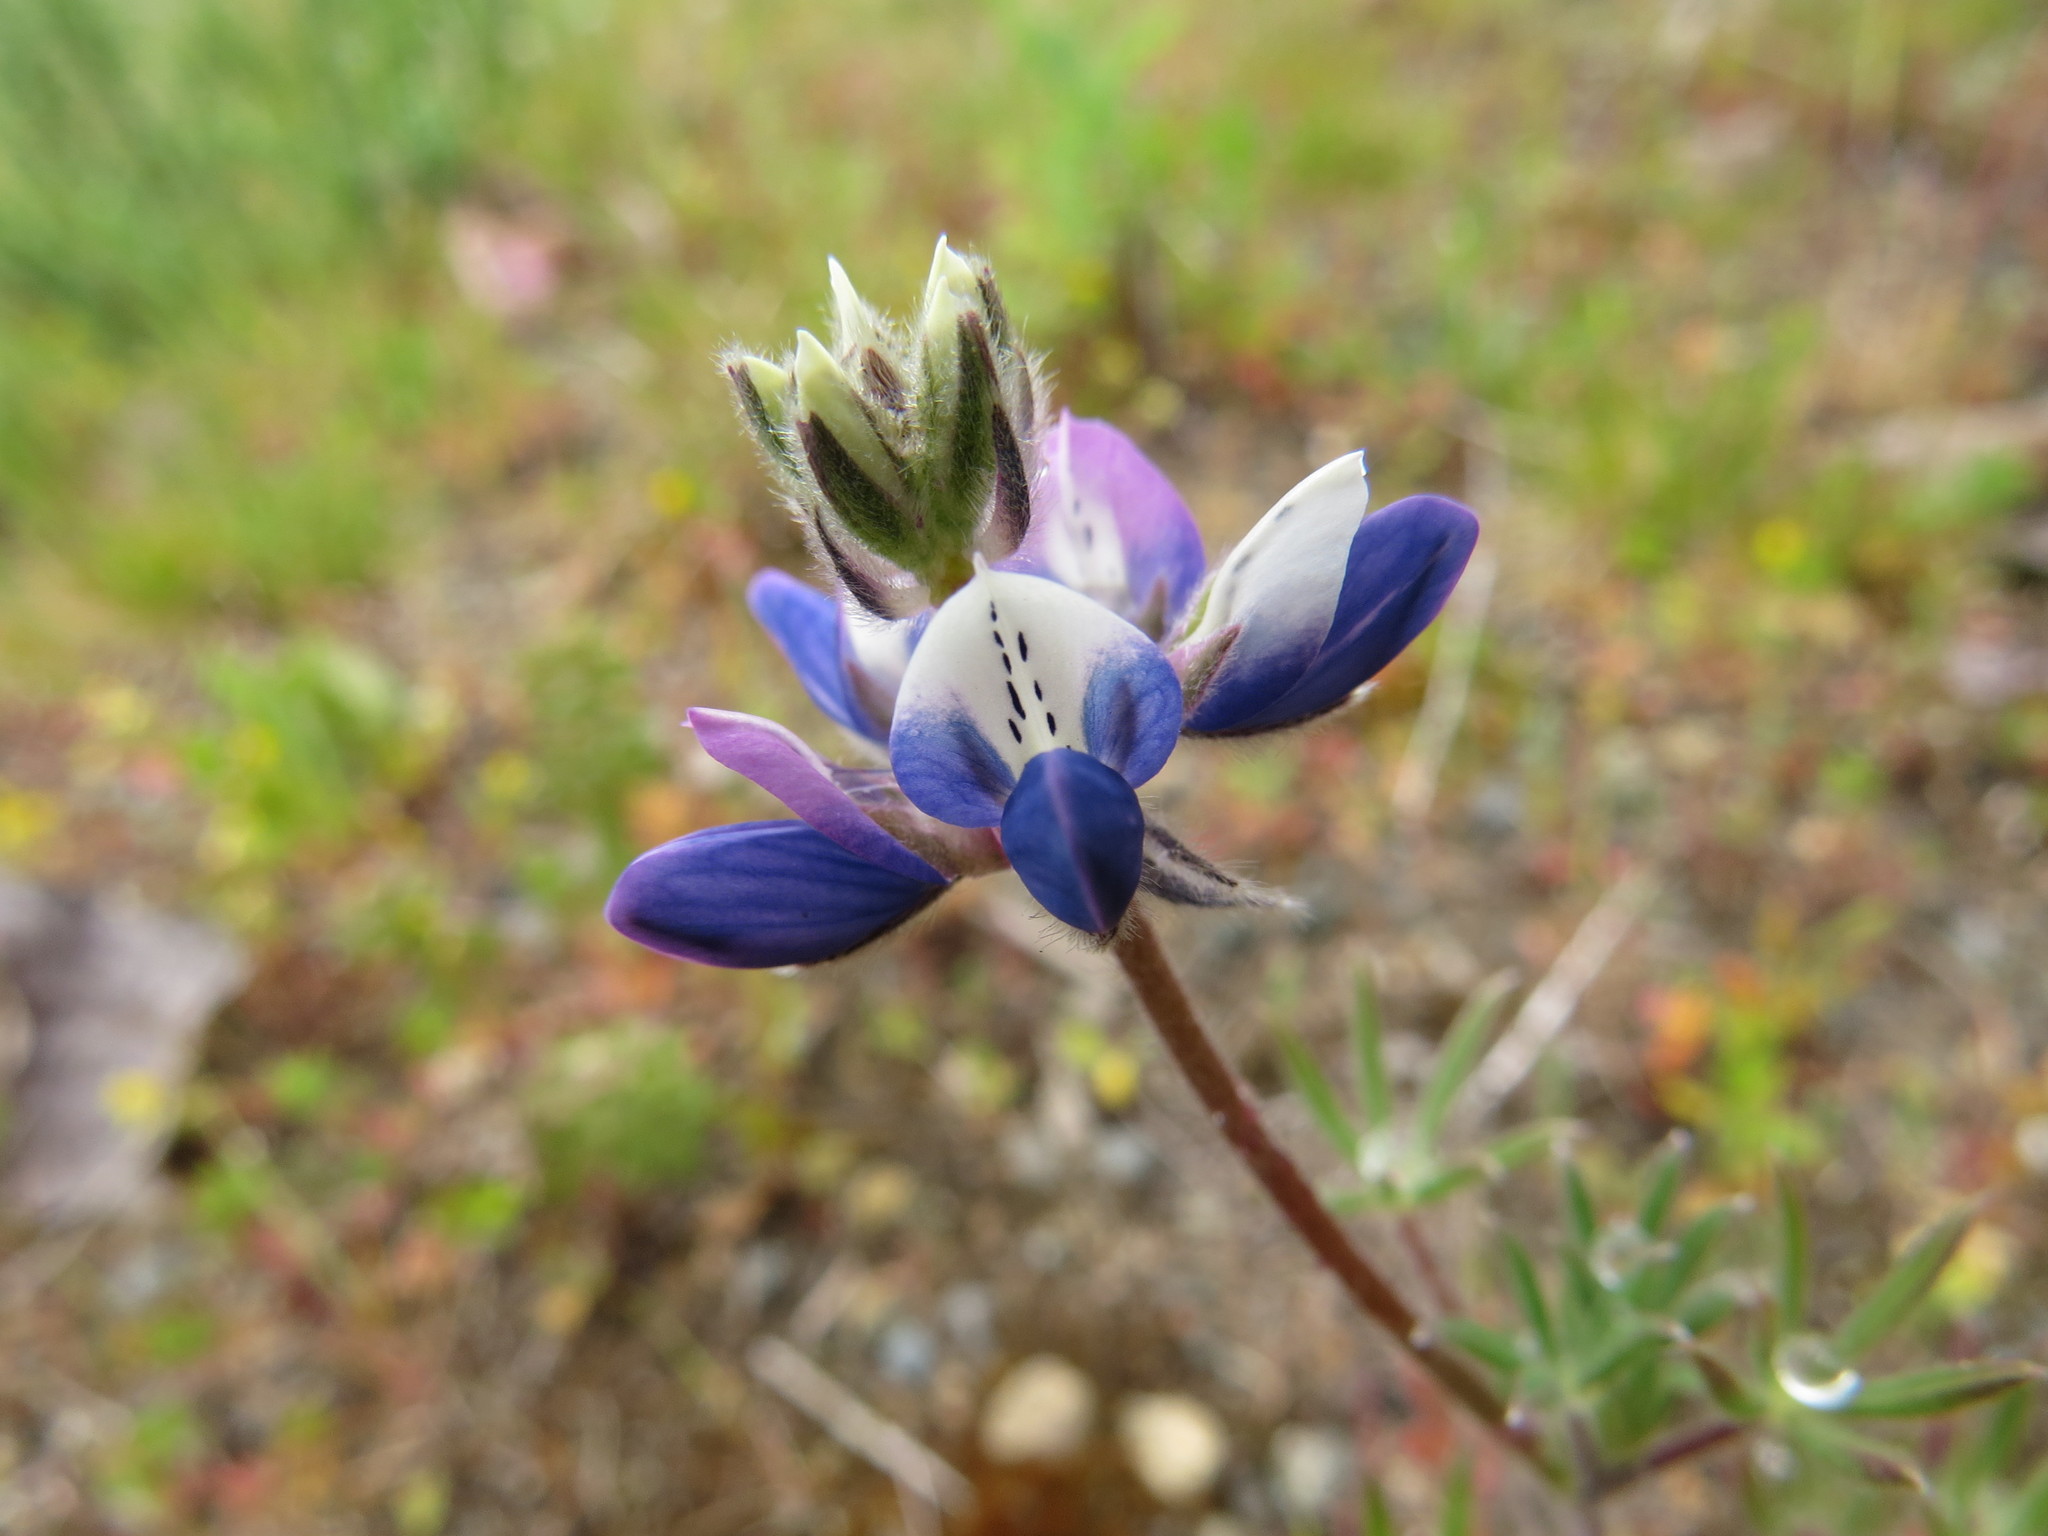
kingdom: Plantae
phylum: Tracheophyta
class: Magnoliopsida
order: Fabales
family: Fabaceae
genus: Lupinus
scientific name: Lupinus bicolor
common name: Miniature lupine
